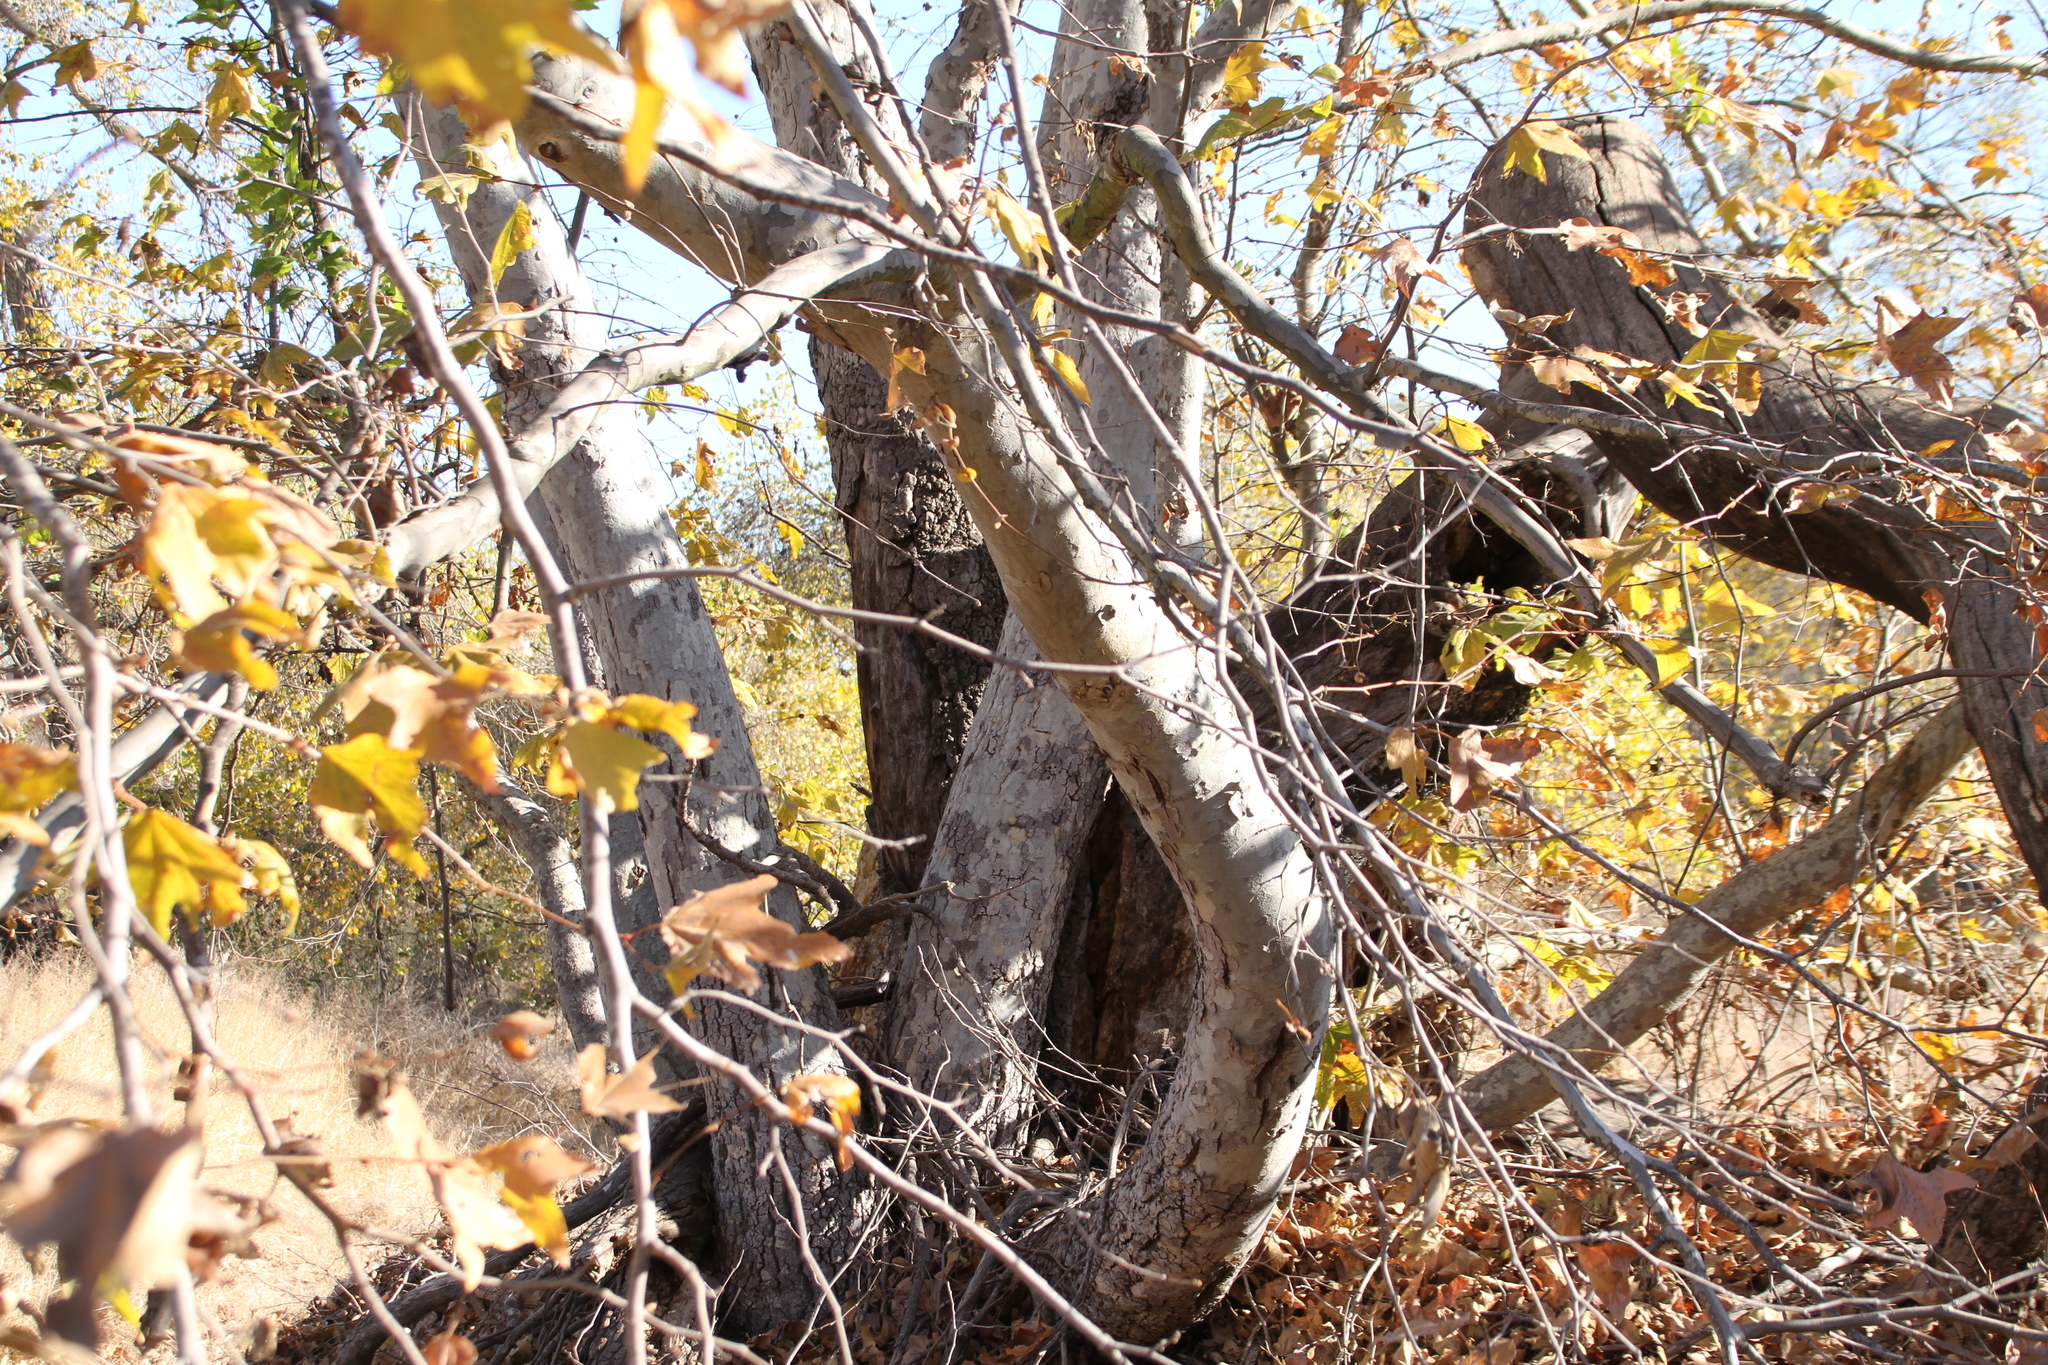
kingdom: Plantae
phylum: Tracheophyta
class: Magnoliopsida
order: Proteales
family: Platanaceae
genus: Platanus
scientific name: Platanus racemosa
